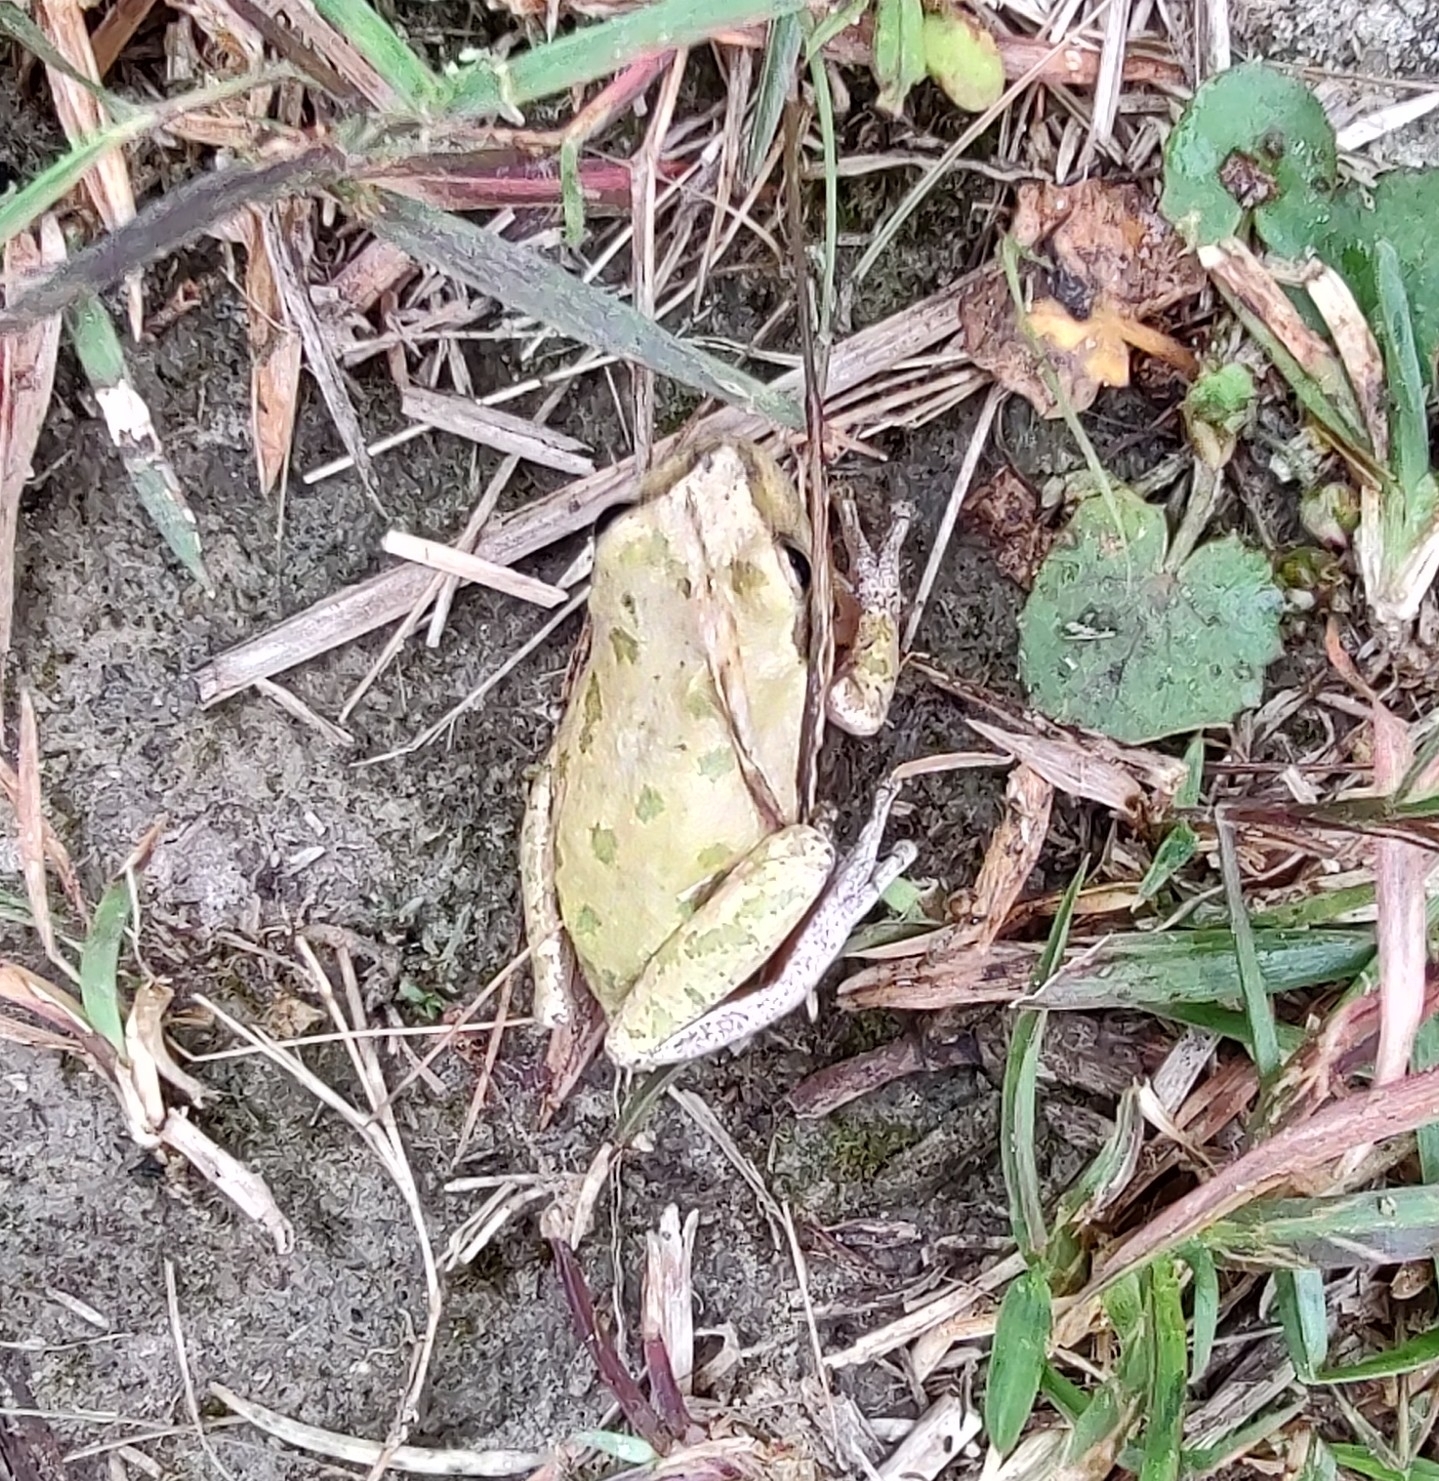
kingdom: Animalia
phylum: Chordata
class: Amphibia
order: Anura
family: Hylidae
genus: Dryophytes
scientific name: Dryophytes squirellus
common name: Squirrel treefrog
